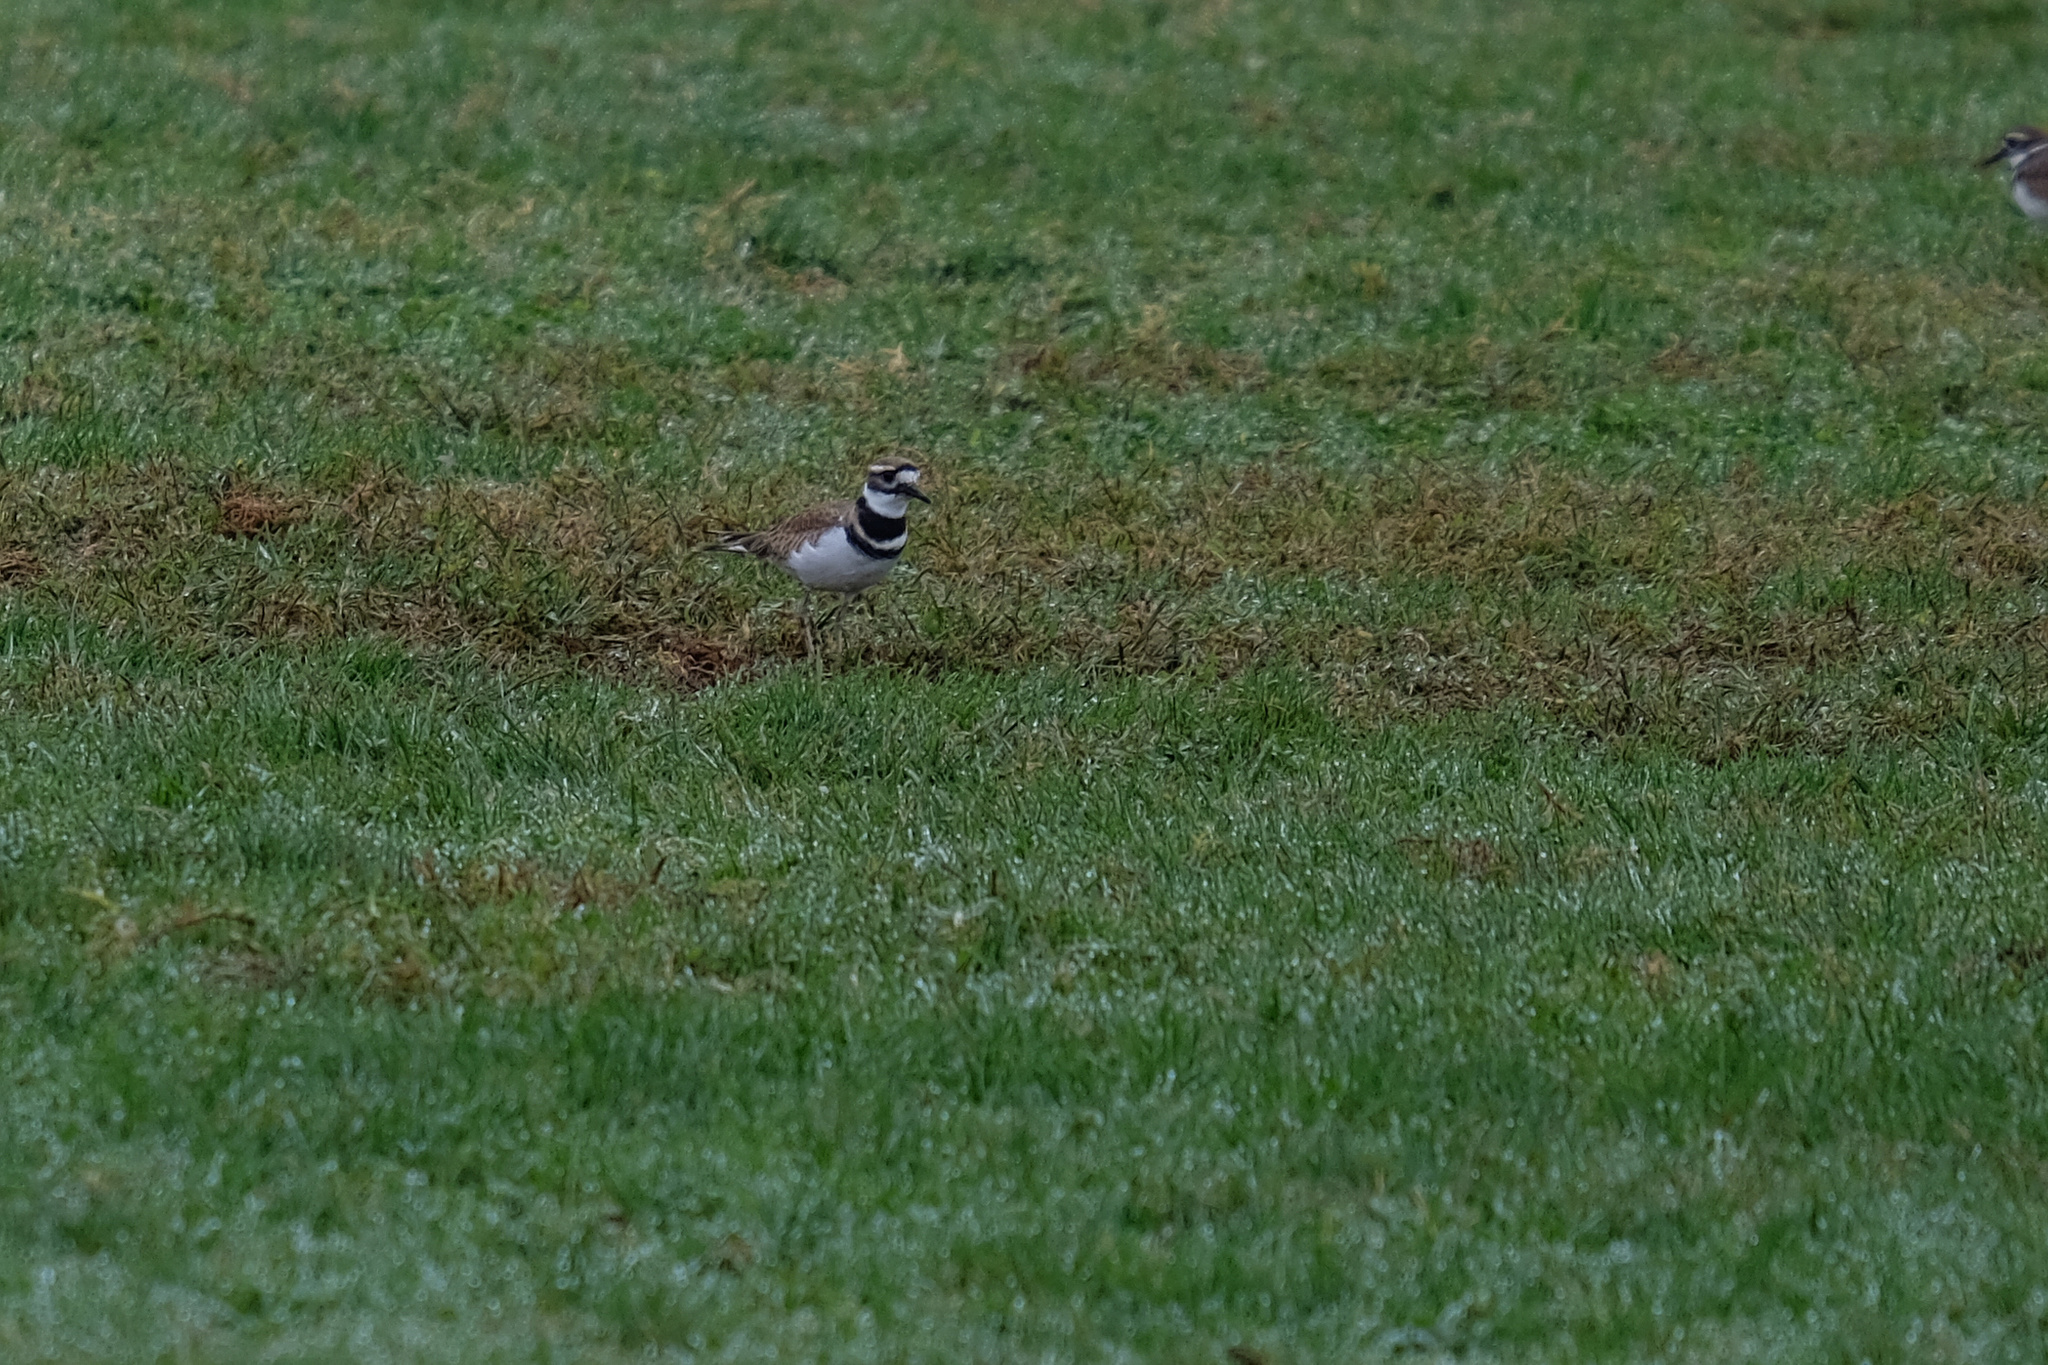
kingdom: Animalia
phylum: Chordata
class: Aves
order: Charadriiformes
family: Charadriidae
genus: Charadrius
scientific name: Charadrius vociferus
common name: Killdeer
